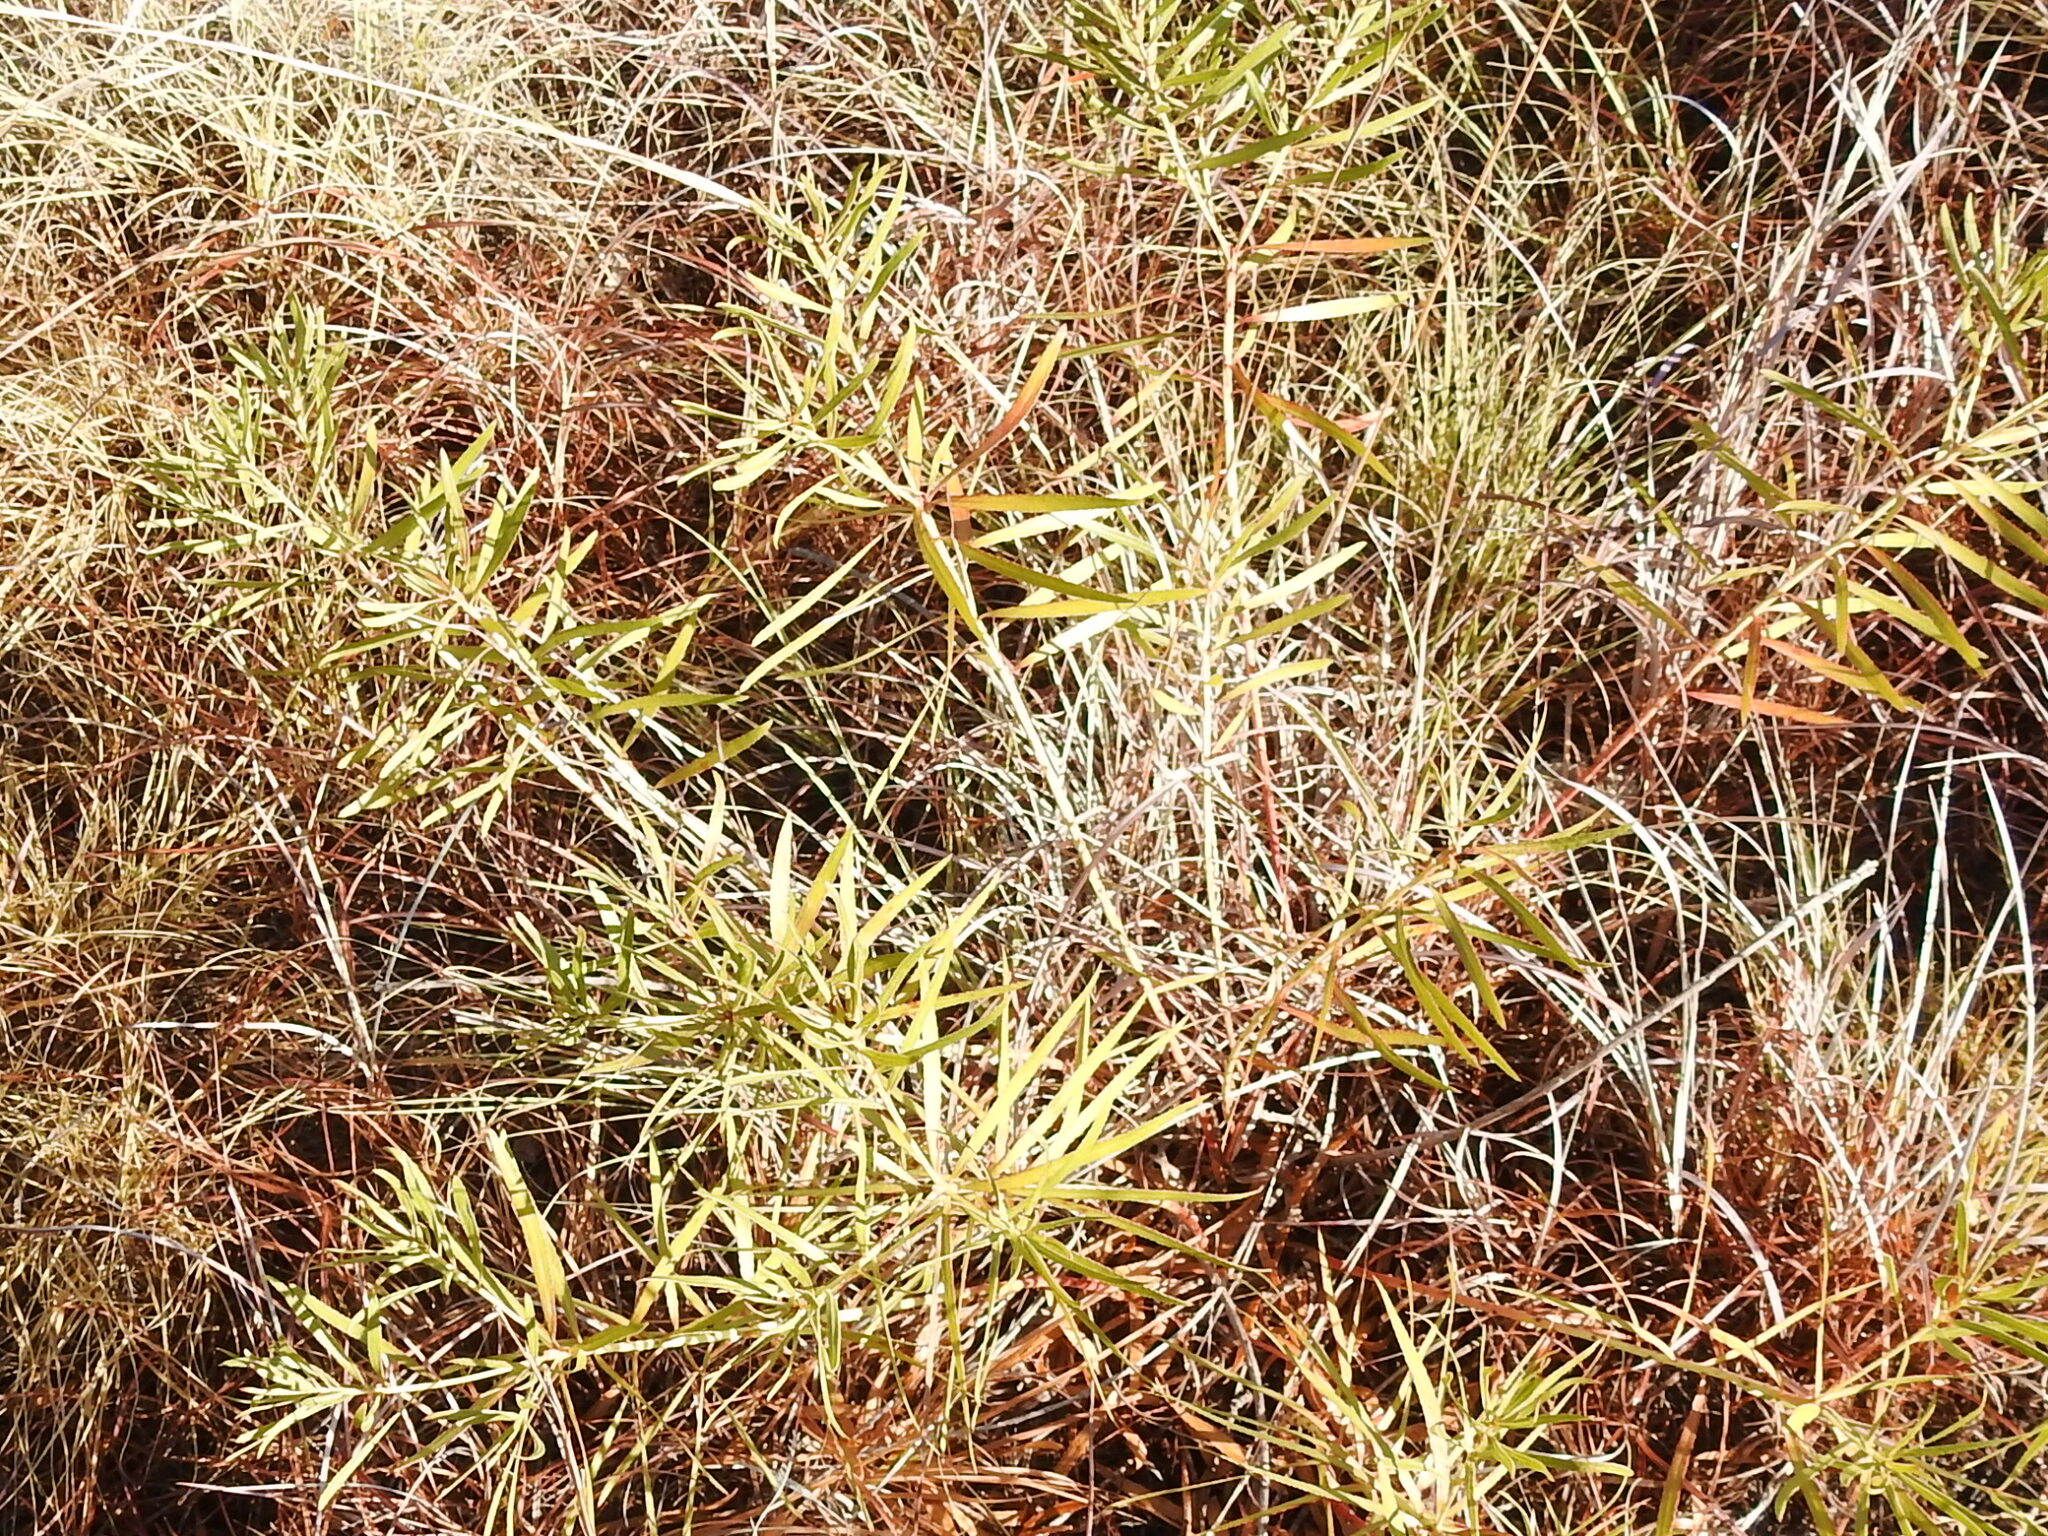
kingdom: Plantae
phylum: Tracheophyta
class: Magnoliopsida
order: Malpighiales
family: Euphorbiaceae
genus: Stillingia
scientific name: Stillingia texana
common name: Texas stillingia
